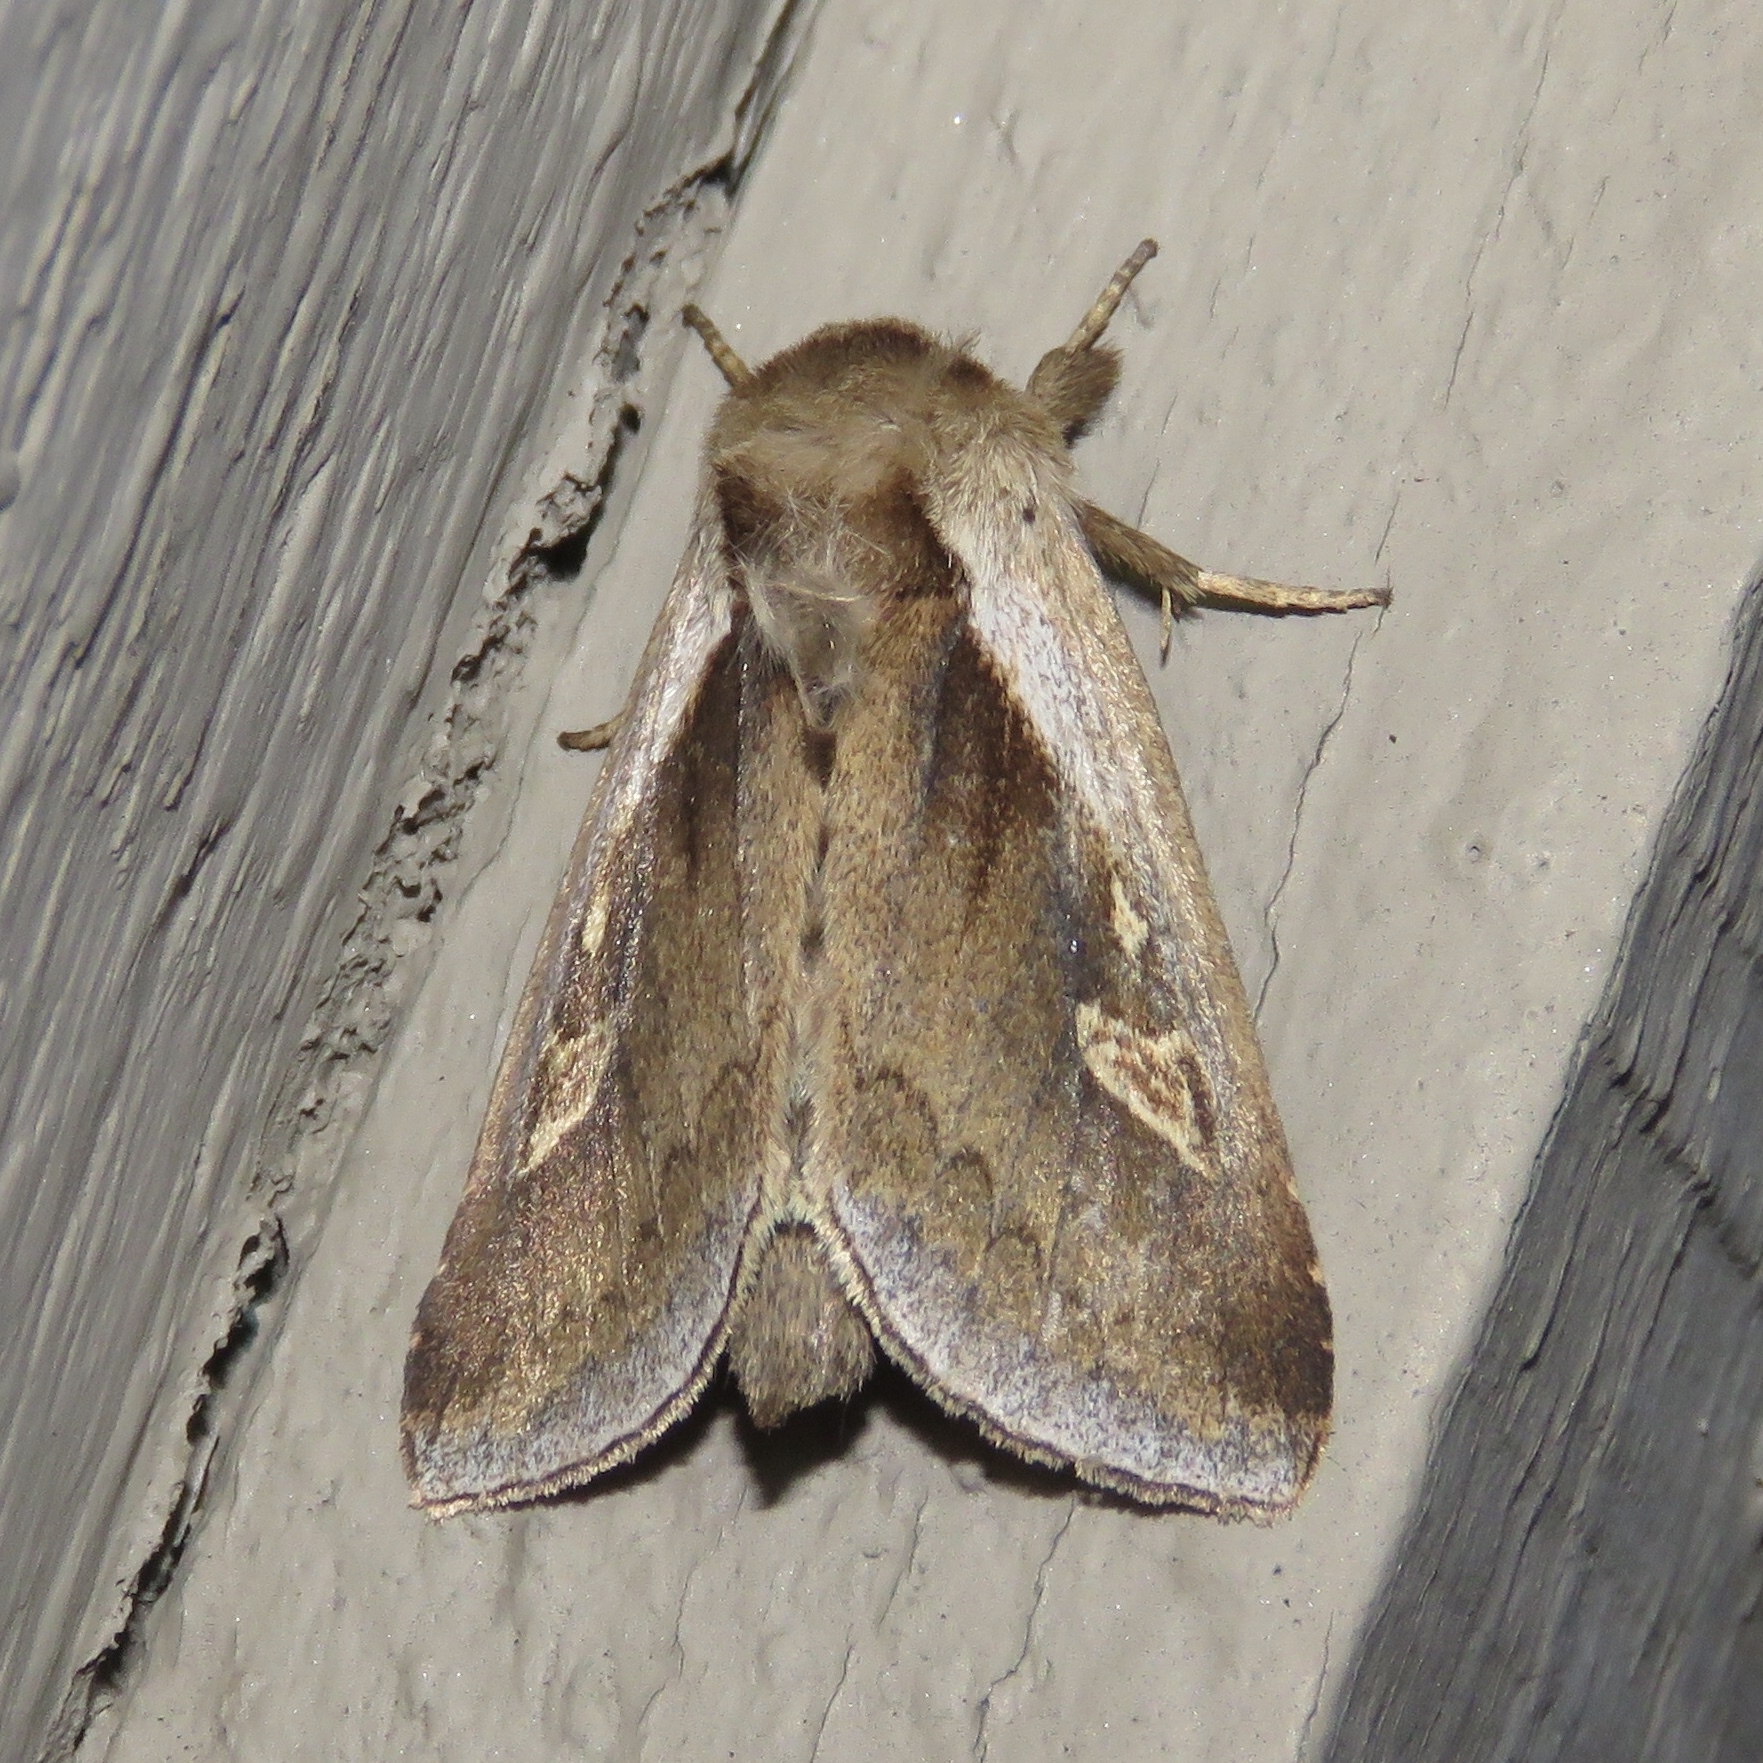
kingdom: Animalia
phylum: Arthropoda
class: Insecta
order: Lepidoptera
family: Noctuidae
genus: Bellura
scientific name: Bellura obliqua
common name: Cattail borer moth
